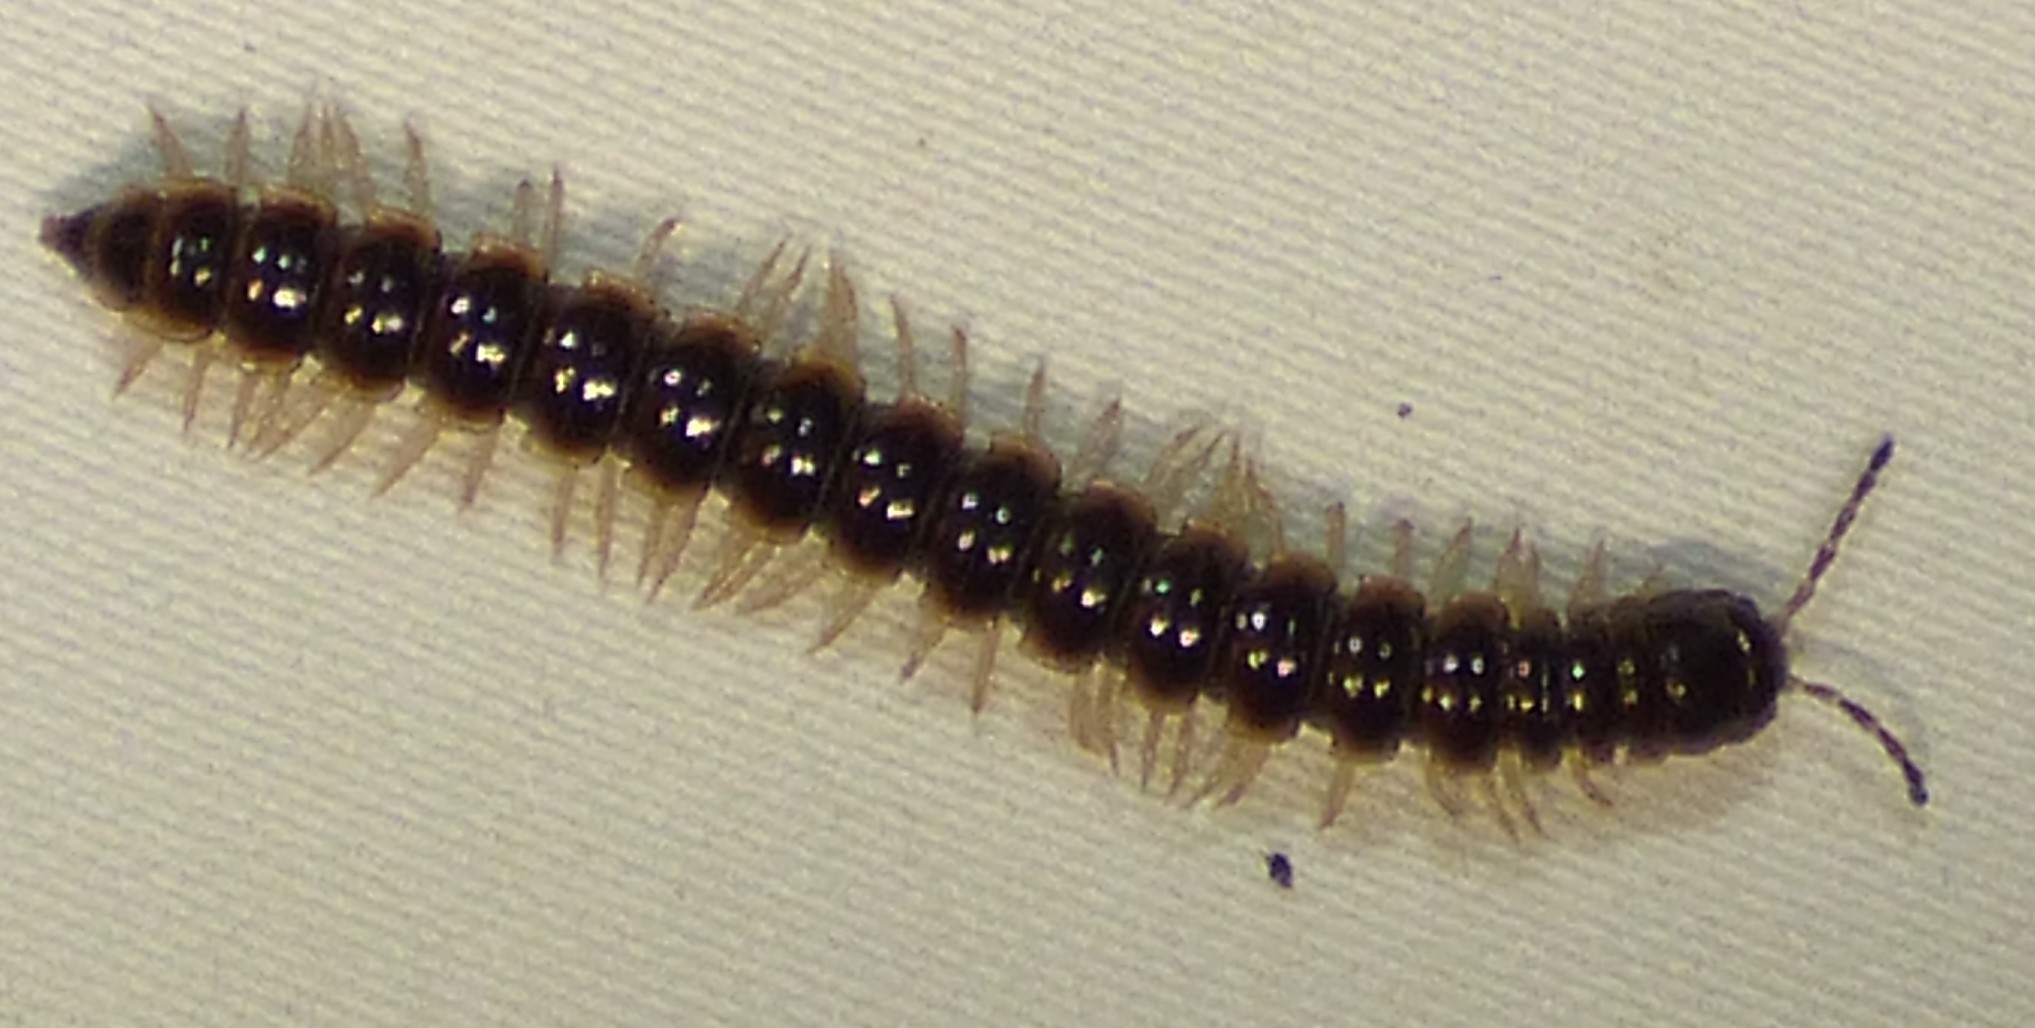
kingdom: Animalia
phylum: Arthropoda
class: Diplopoda
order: Polydesmida
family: Paradoxosomatidae
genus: Oxidus
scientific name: Oxidus gracilis
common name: Greenhouse millipede
